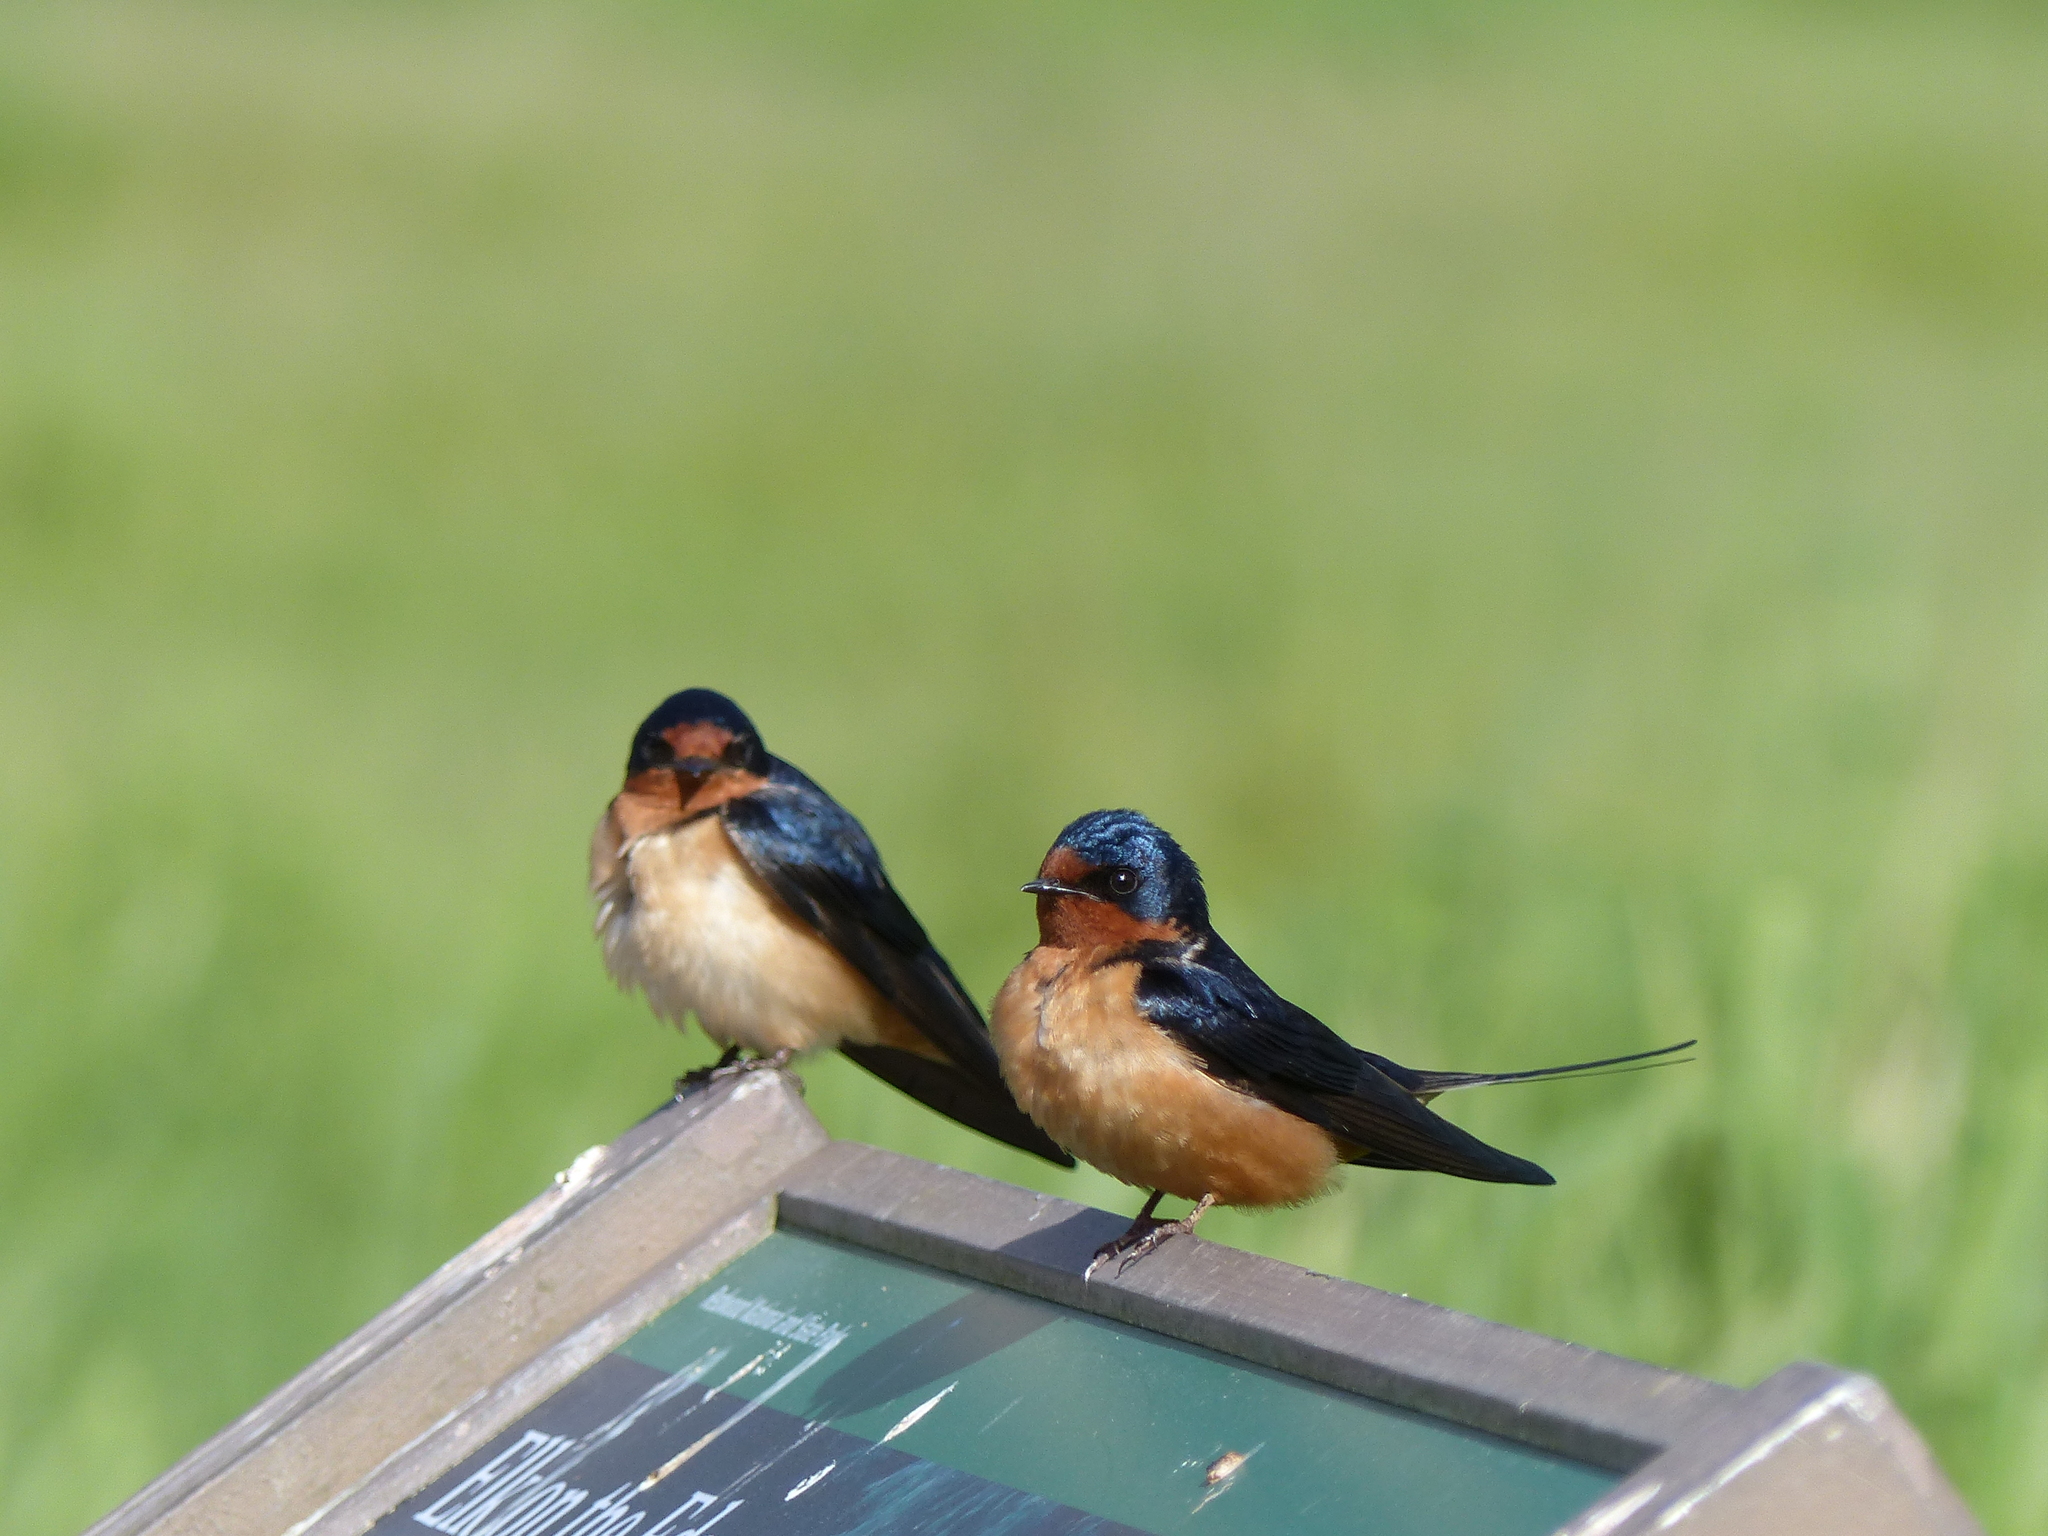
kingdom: Animalia
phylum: Chordata
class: Aves
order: Passeriformes
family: Hirundinidae
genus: Hirundo
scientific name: Hirundo rustica
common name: Barn swallow
